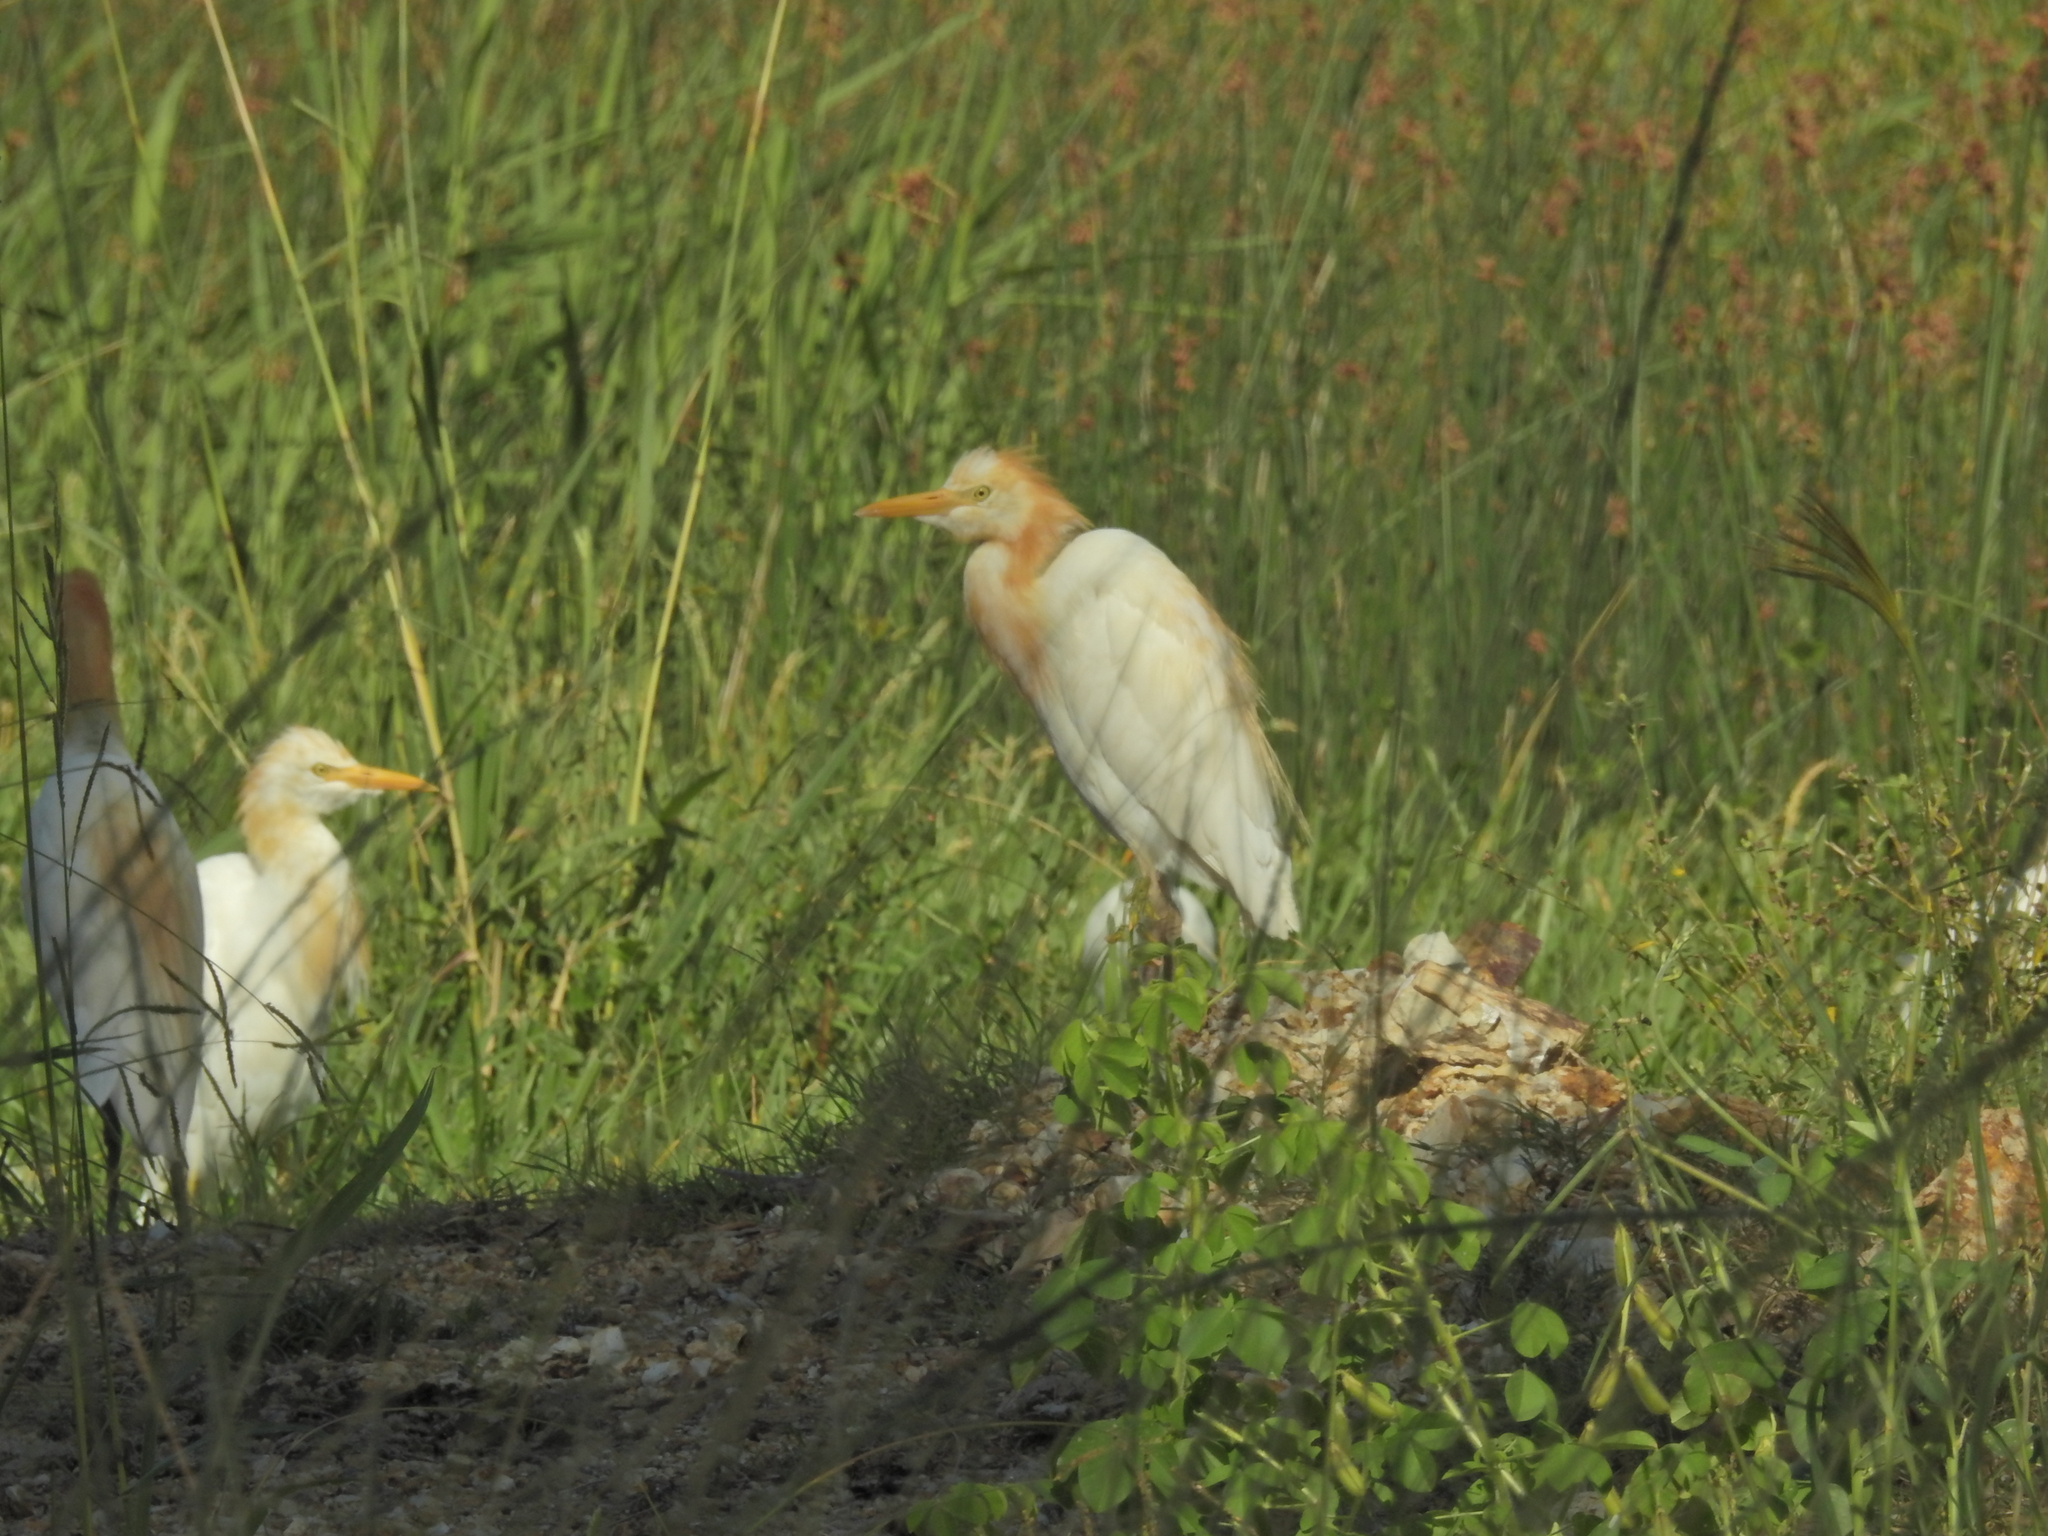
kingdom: Animalia
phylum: Chordata
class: Aves
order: Pelecaniformes
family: Ardeidae
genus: Bubulcus
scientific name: Bubulcus coromandus
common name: Eastern cattle egret
